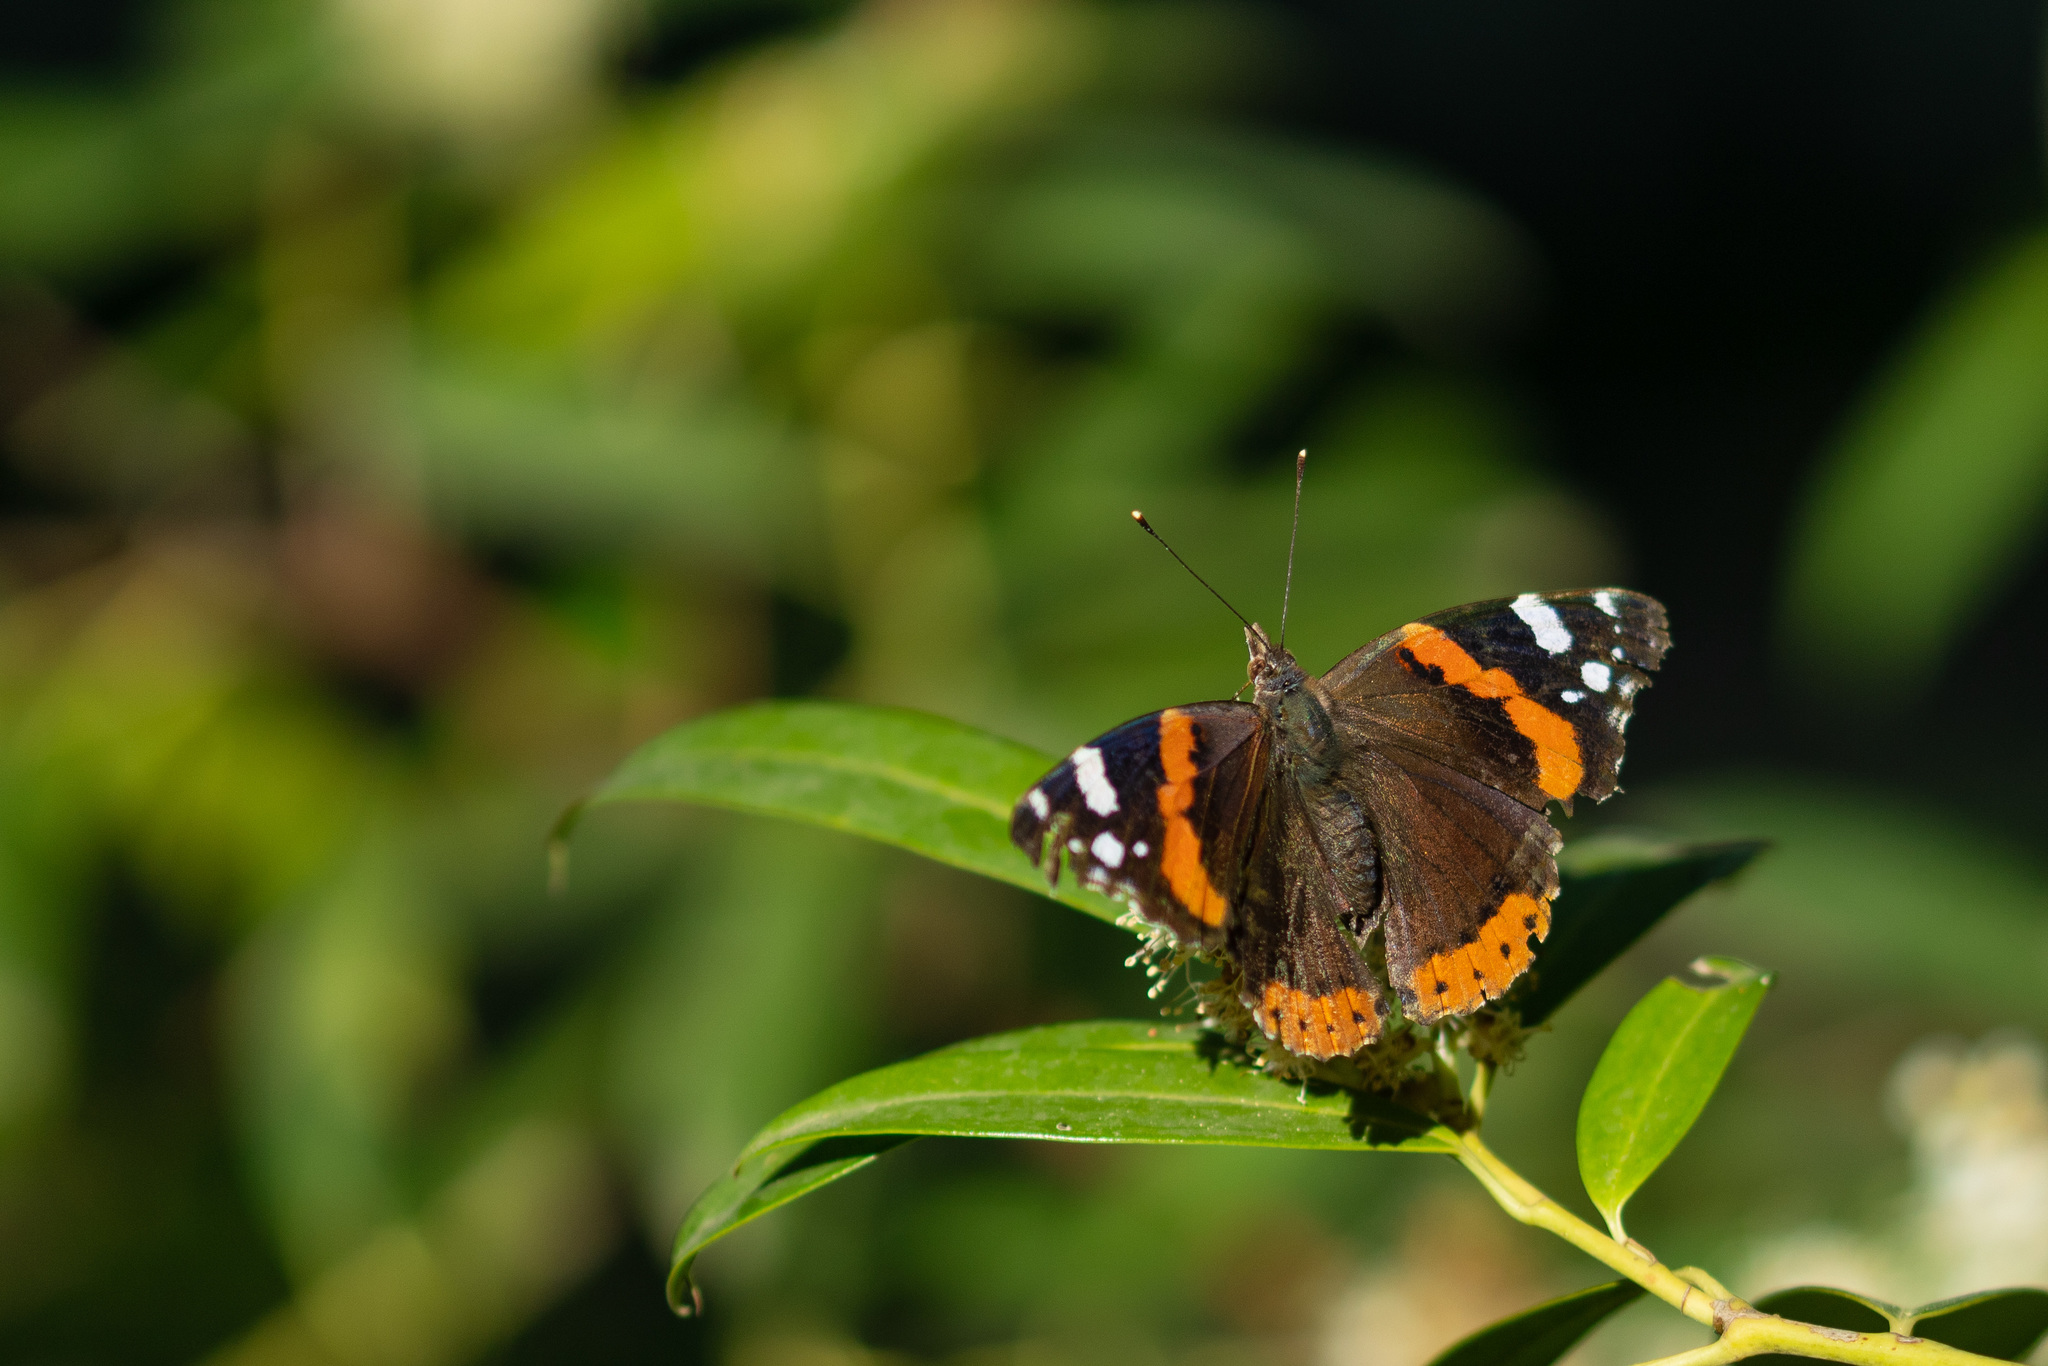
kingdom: Animalia
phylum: Arthropoda
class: Insecta
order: Lepidoptera
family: Nymphalidae
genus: Vanessa
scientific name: Vanessa atalanta
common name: Red admiral
